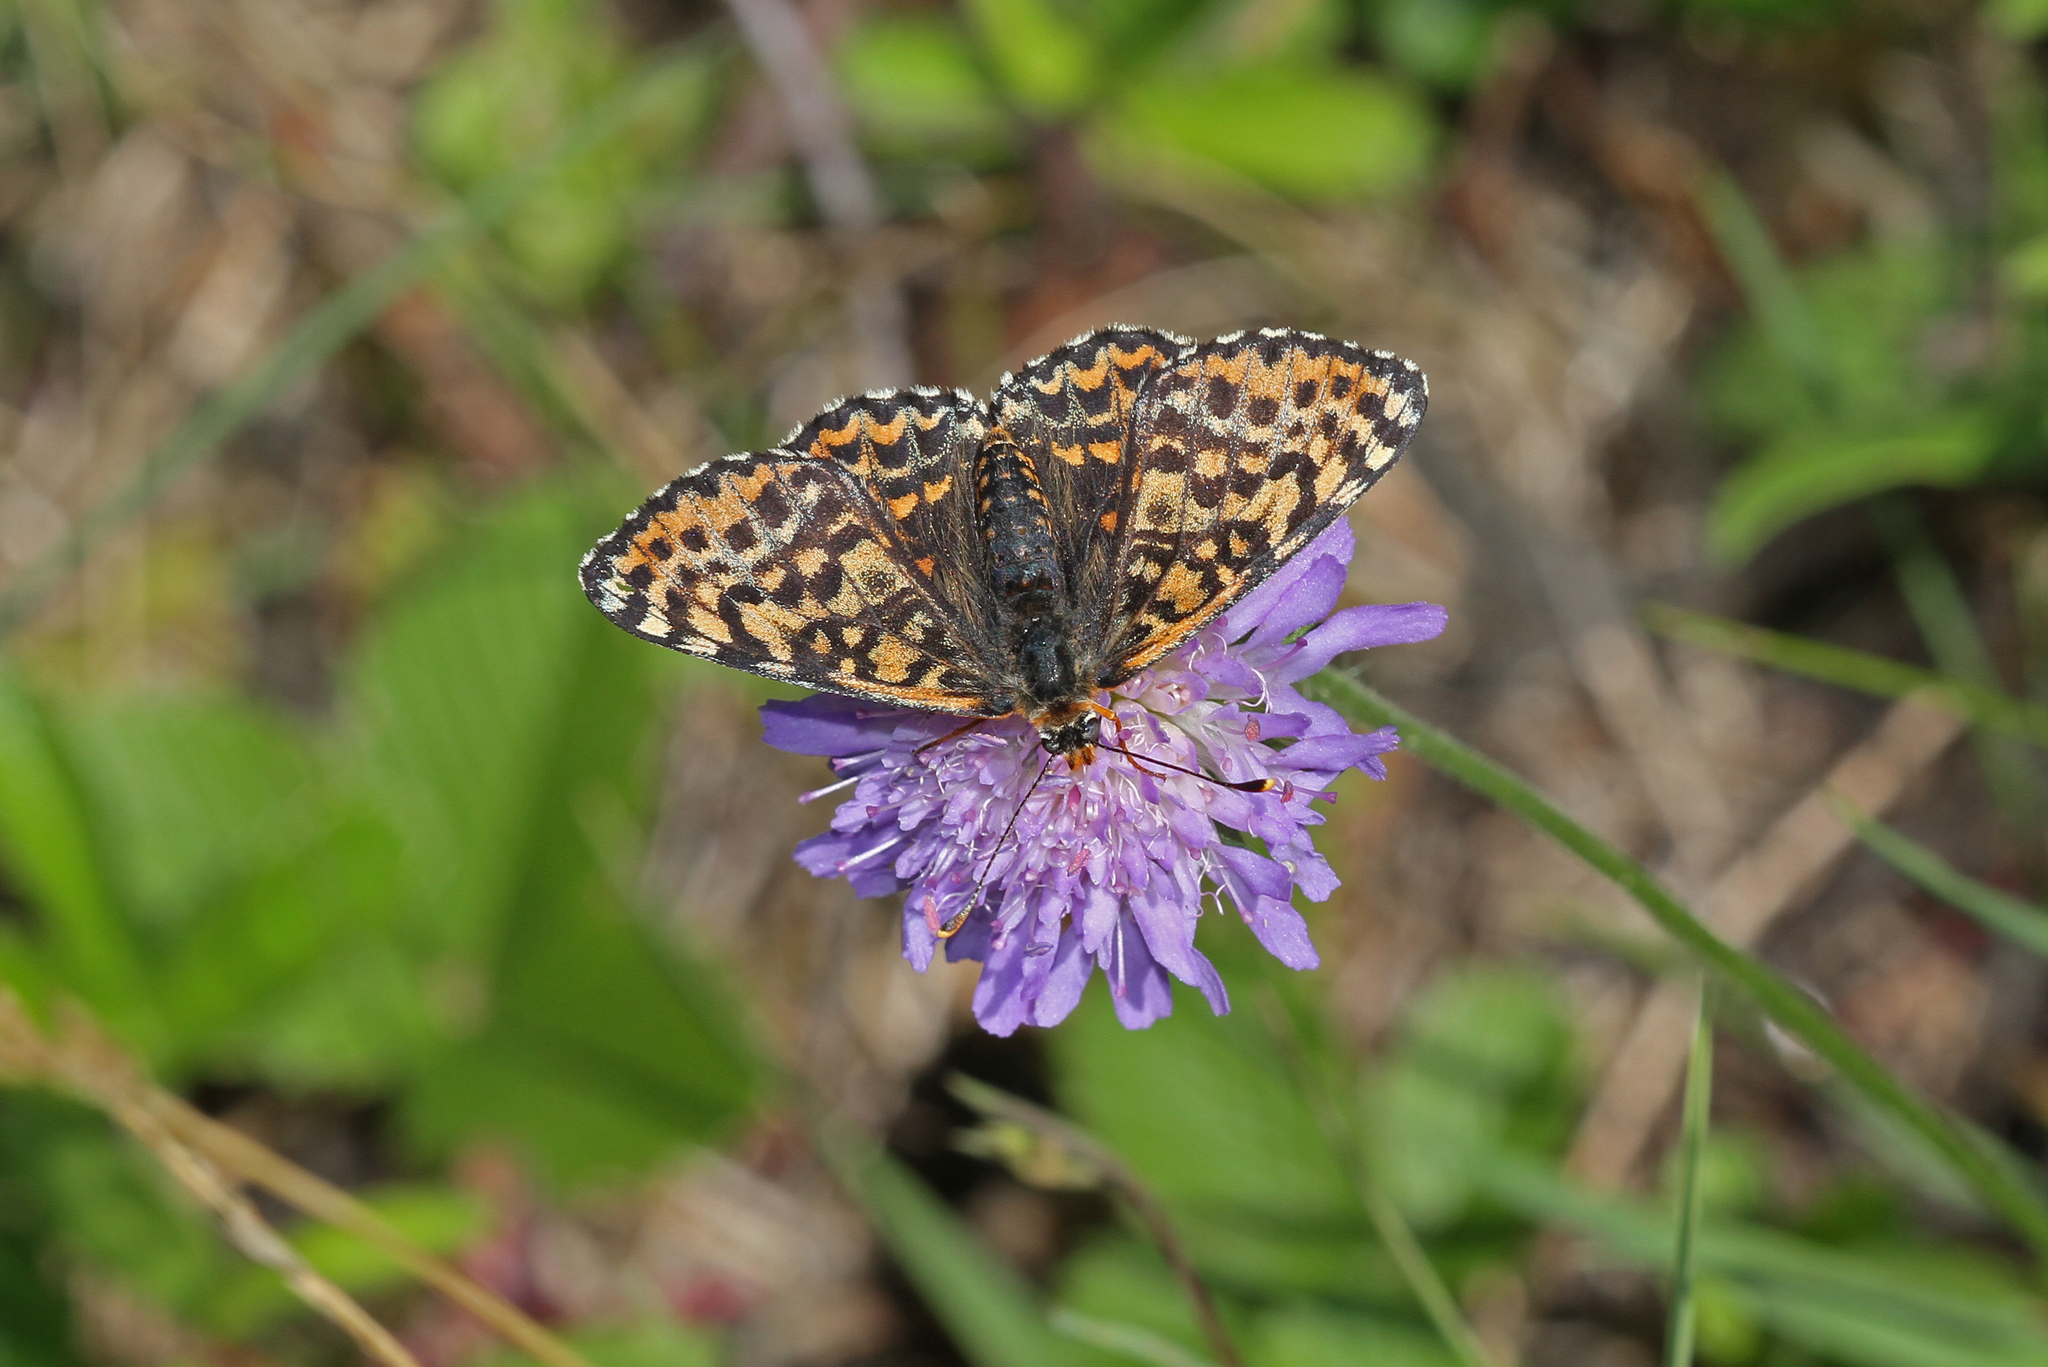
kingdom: Animalia
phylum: Arthropoda
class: Insecta
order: Lepidoptera
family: Nymphalidae
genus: Melitaea
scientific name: Melitaea didyma
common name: Spotted fritillary
